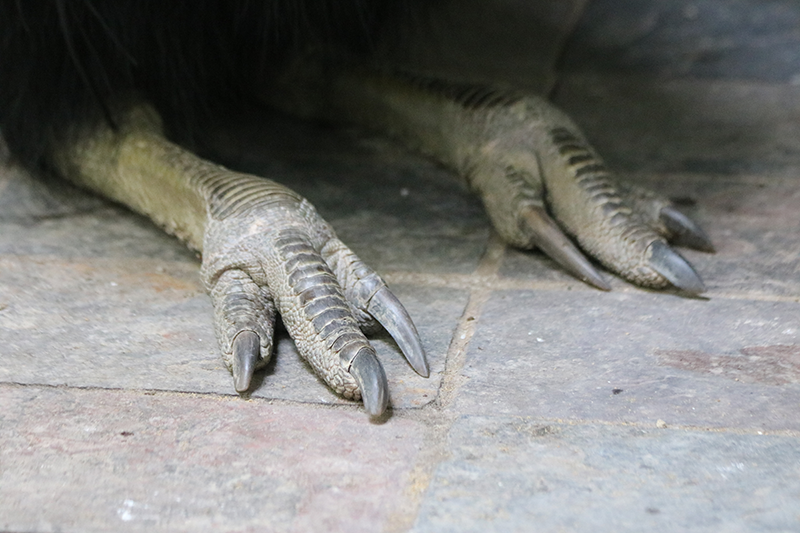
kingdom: Animalia
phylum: Chordata
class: Aves
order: Casuariiformes
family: Casuariidae
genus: Casuarius
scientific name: Casuarius casuarius
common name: Southern cassowary
